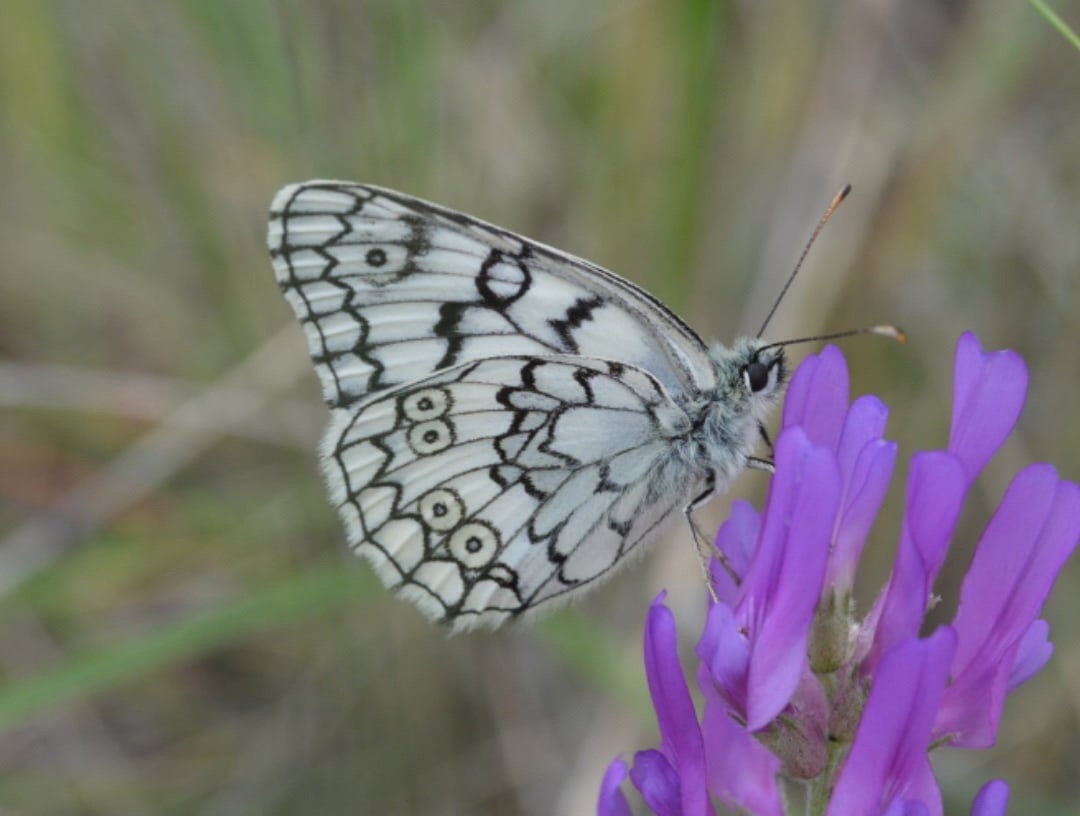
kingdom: Animalia
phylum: Arthropoda
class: Insecta
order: Lepidoptera
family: Nymphalidae
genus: Melanargia
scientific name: Melanargia japygia
